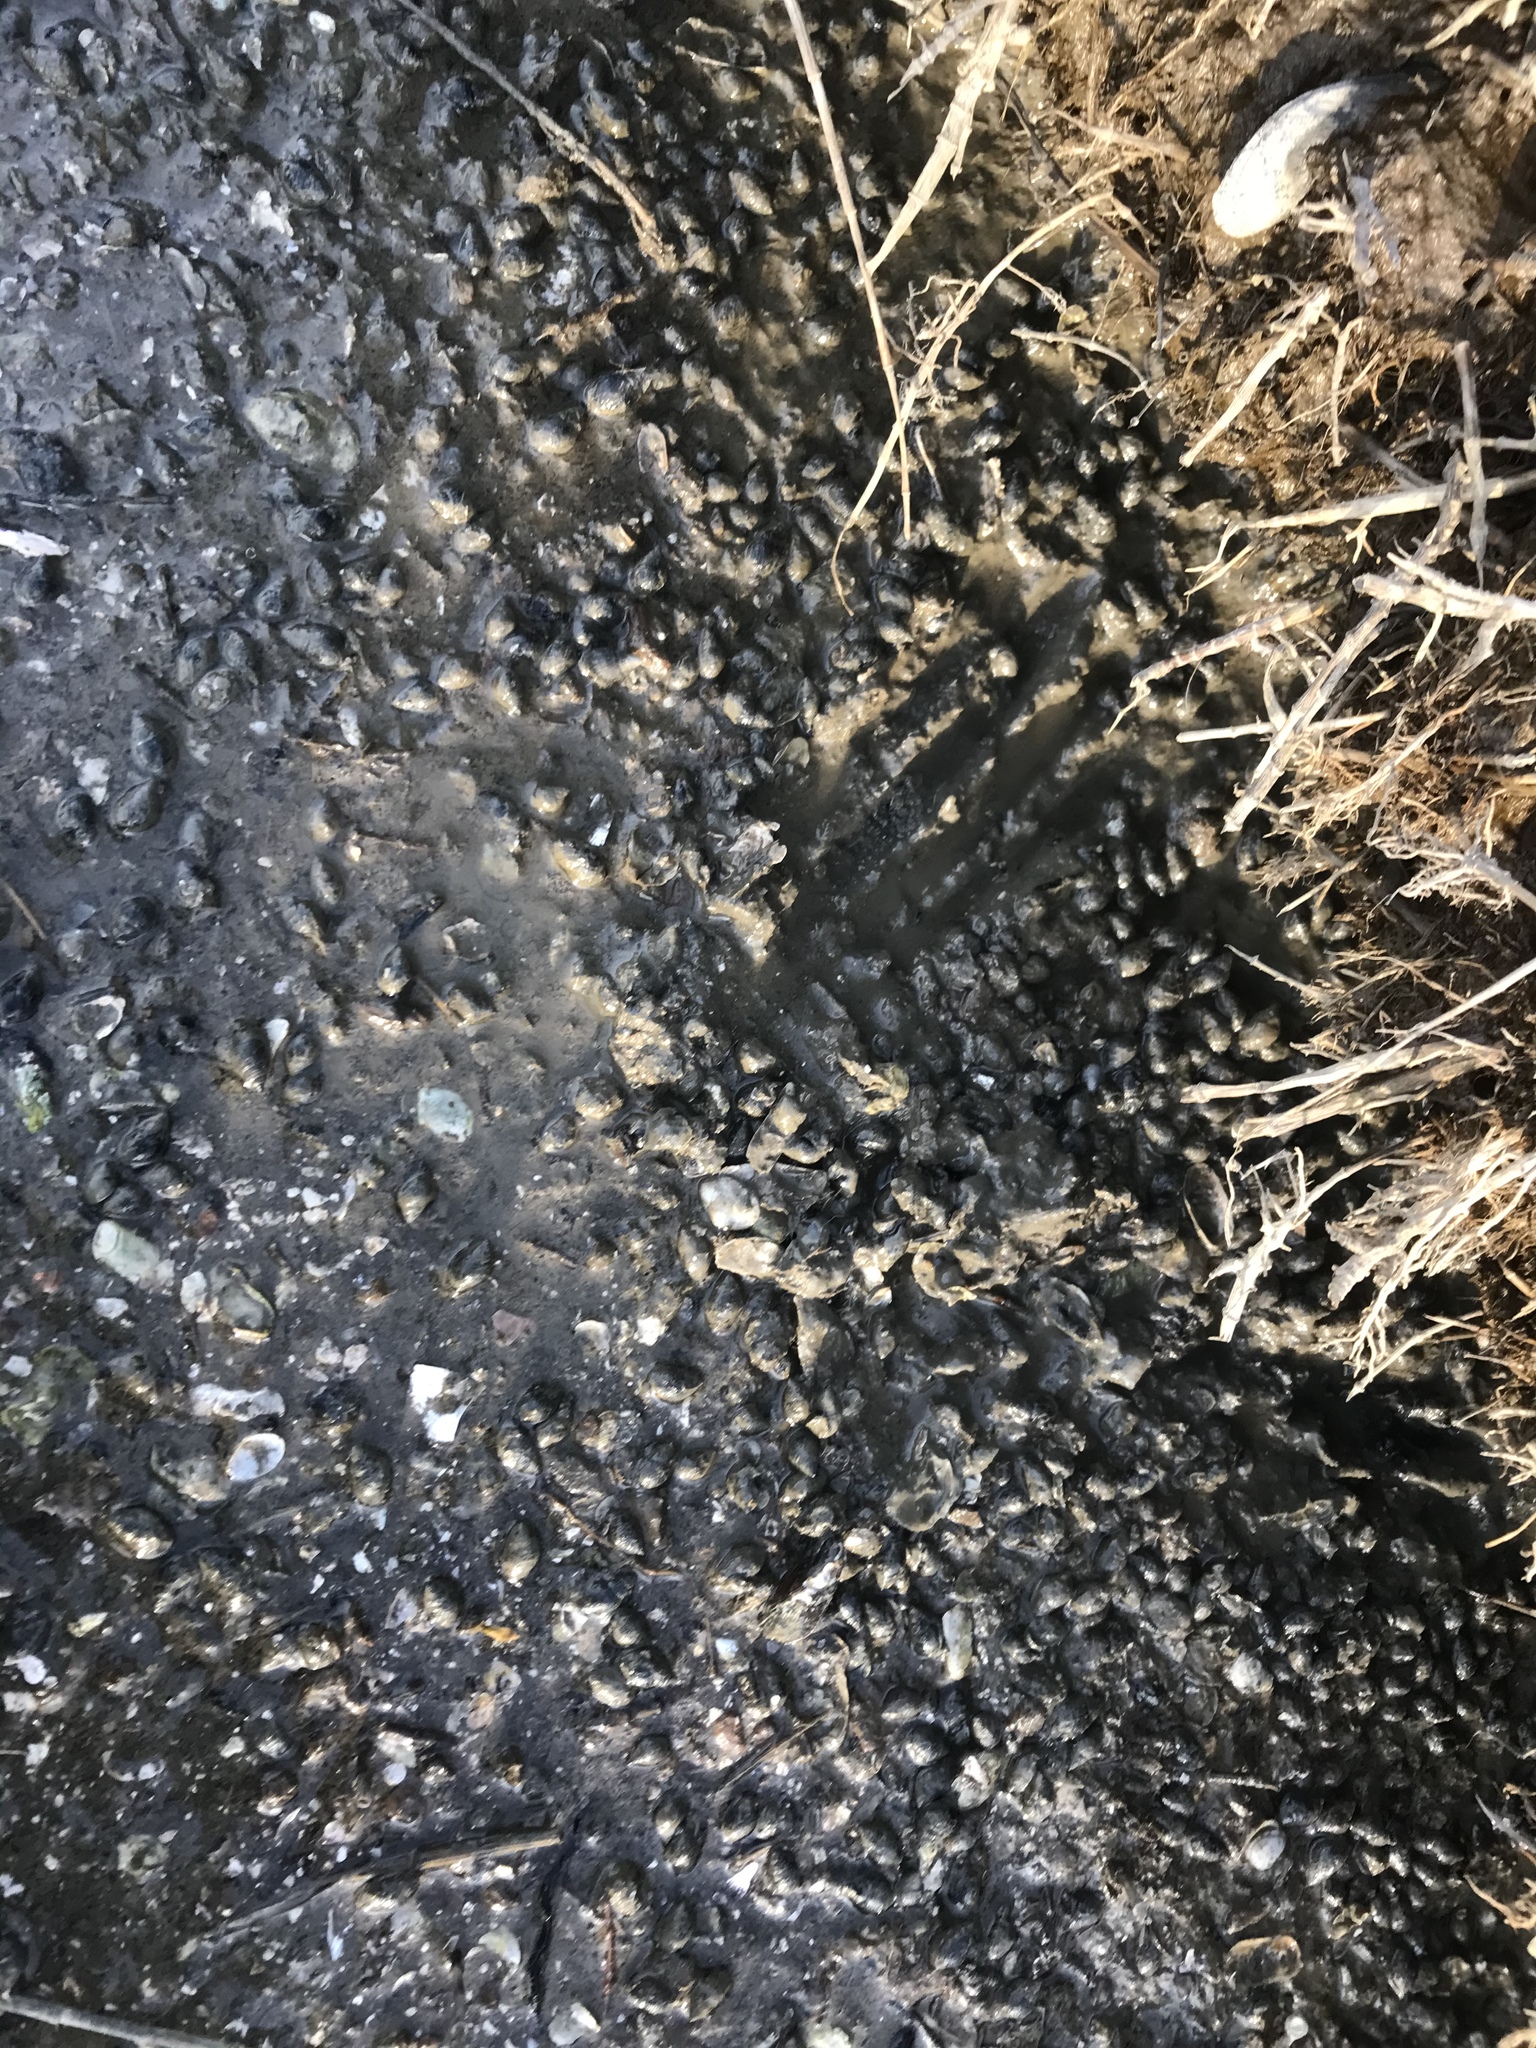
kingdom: Animalia
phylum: Mollusca
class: Gastropoda
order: Neogastropoda
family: Nassariidae
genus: Ilyanassa
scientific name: Ilyanassa obsoleta
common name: Eastern mudsnail
